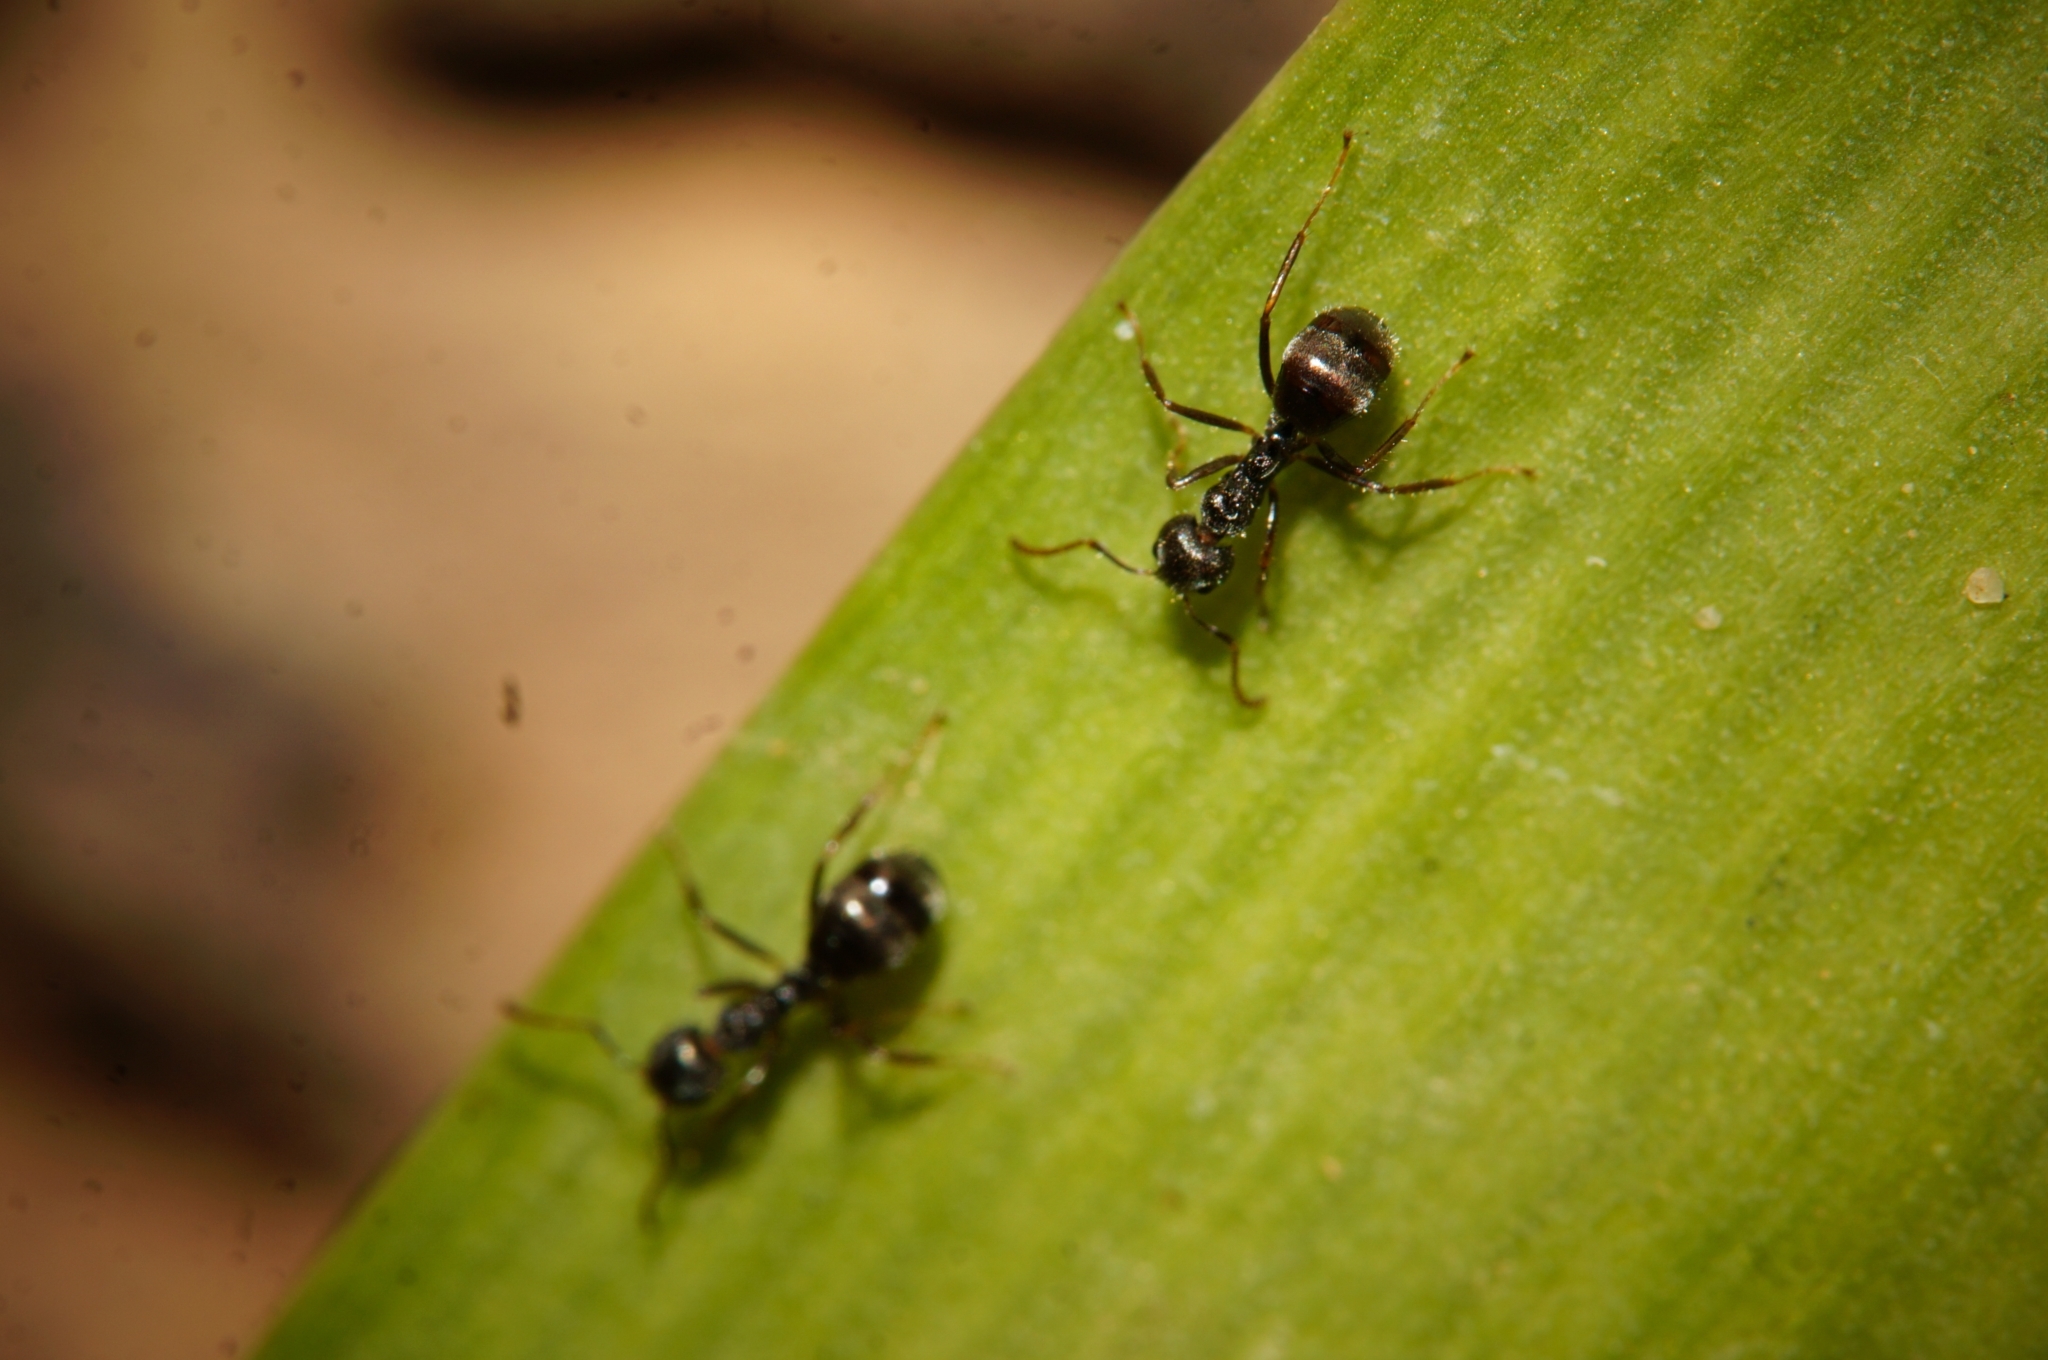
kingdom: Animalia
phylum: Arthropoda
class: Insecta
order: Hymenoptera
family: Formicidae
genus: Dolichoderus
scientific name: Dolichoderus thoracicus
